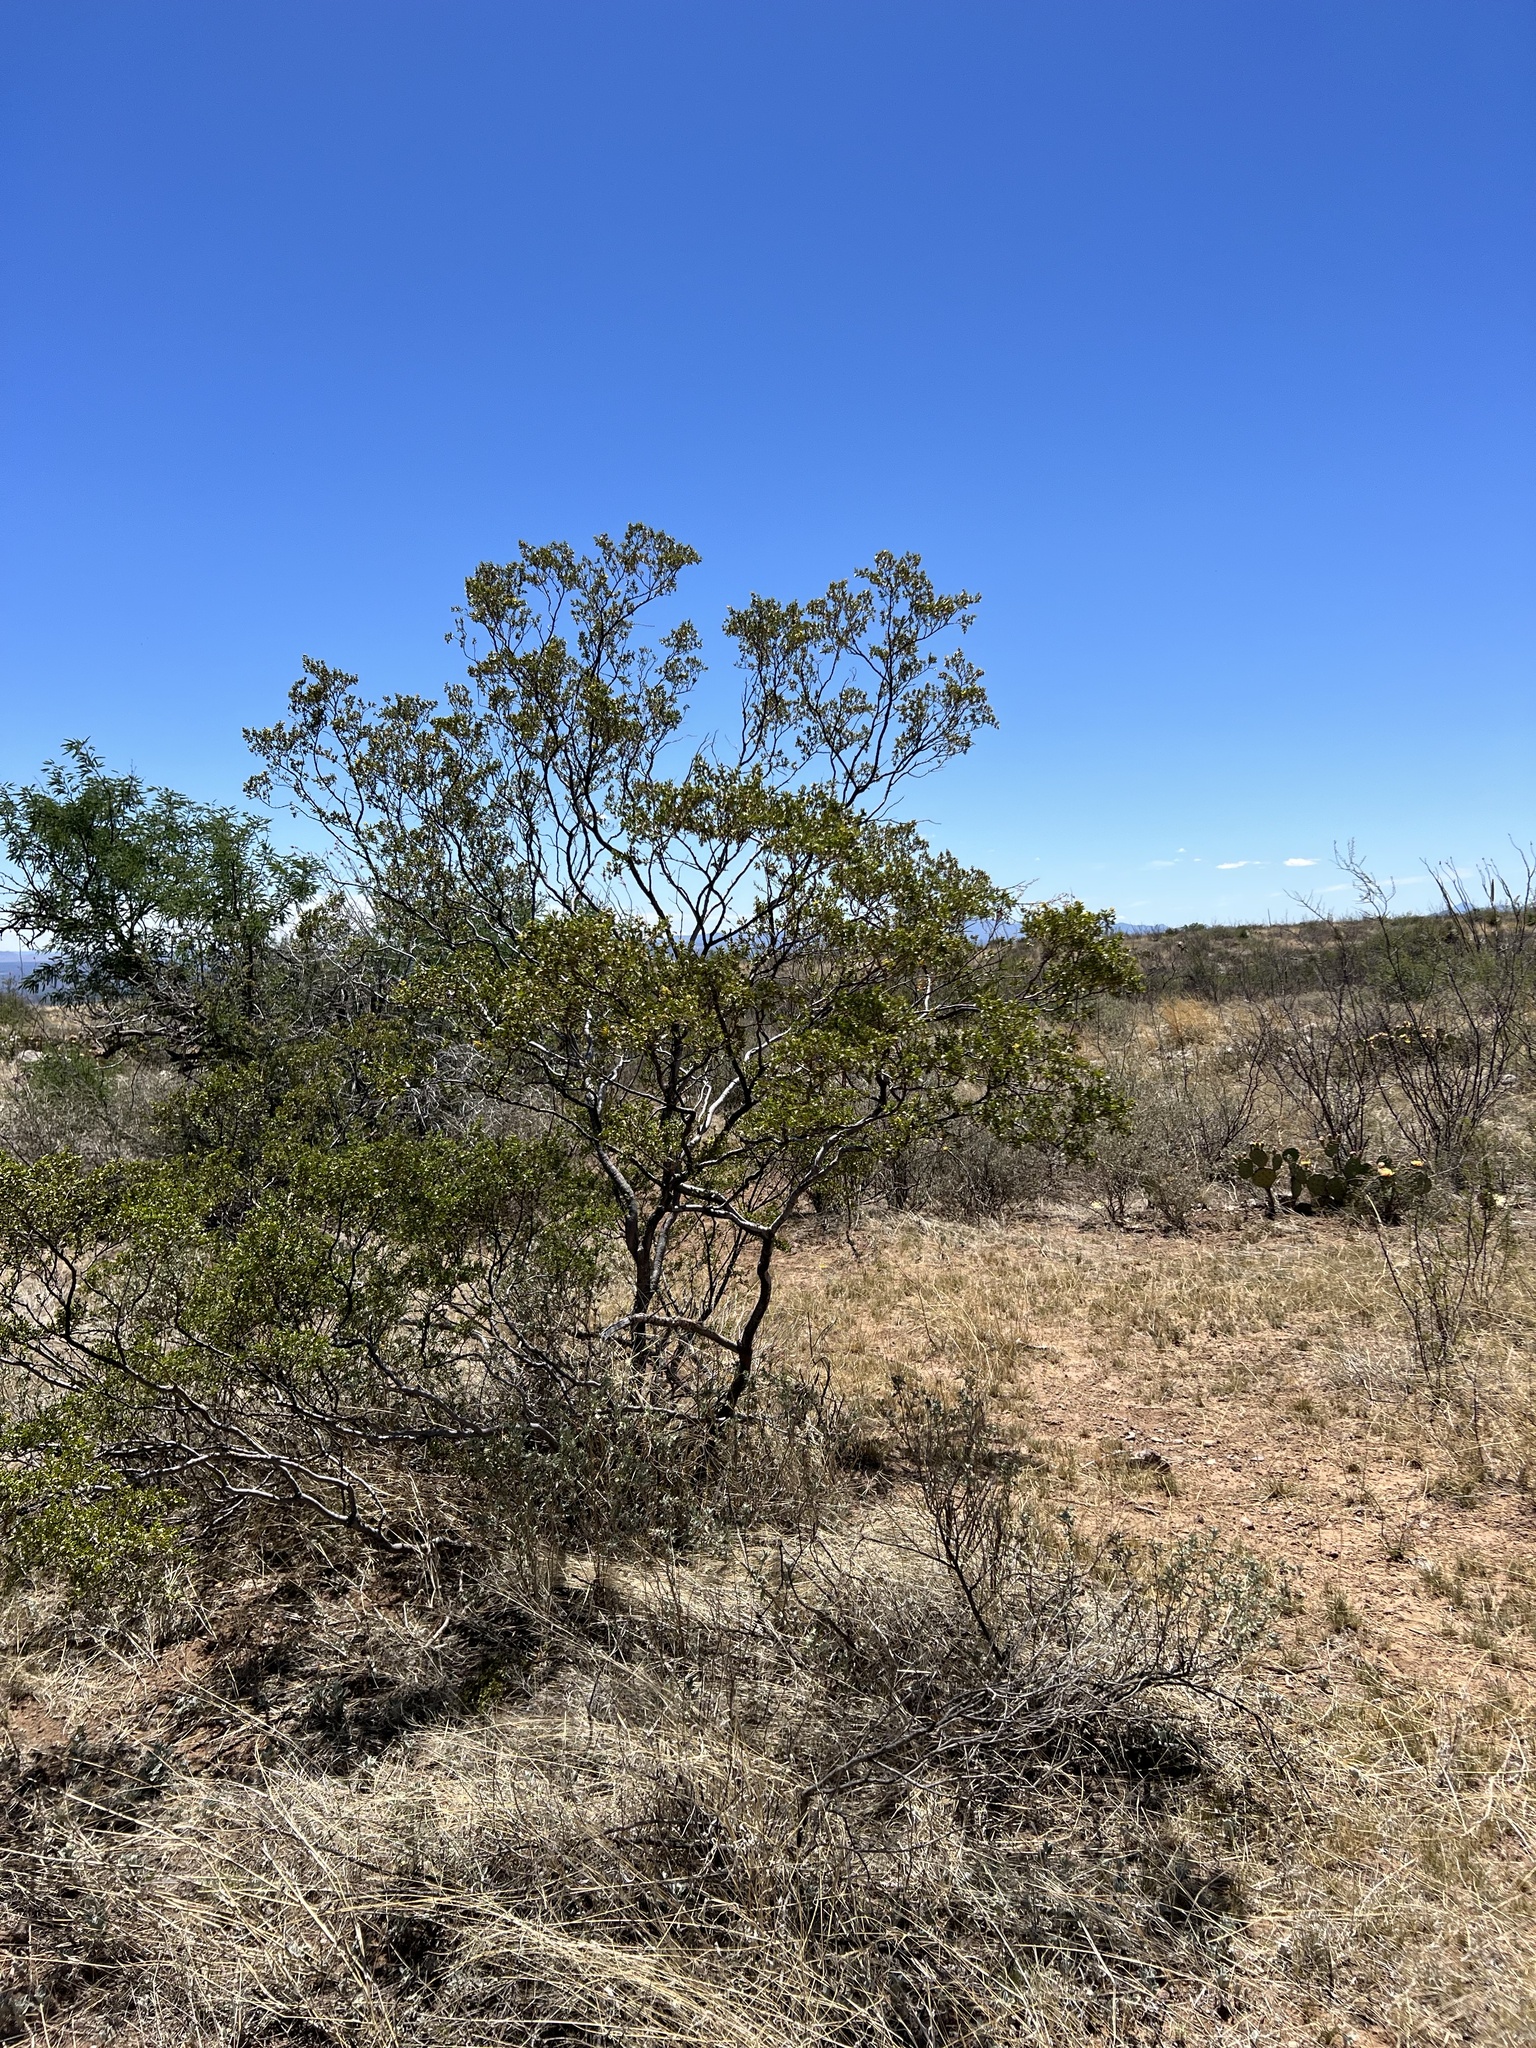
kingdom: Plantae
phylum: Tracheophyta
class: Magnoliopsida
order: Zygophyllales
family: Zygophyllaceae
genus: Larrea
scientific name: Larrea tridentata
